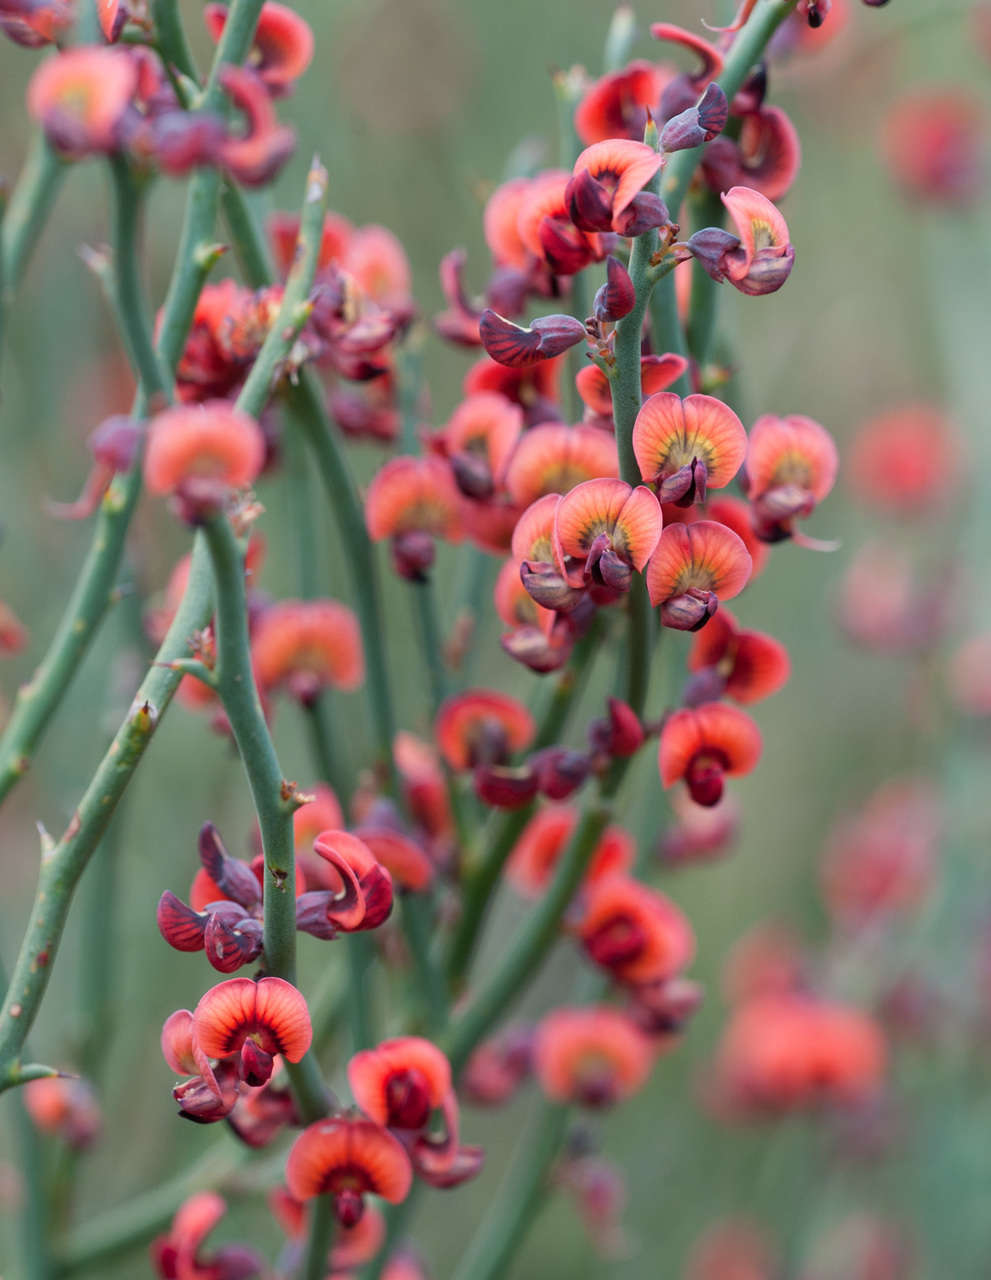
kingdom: Plantae
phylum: Tracheophyta
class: Magnoliopsida
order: Fabales
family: Fabaceae
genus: Daviesia
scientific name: Daviesia brevifolia
